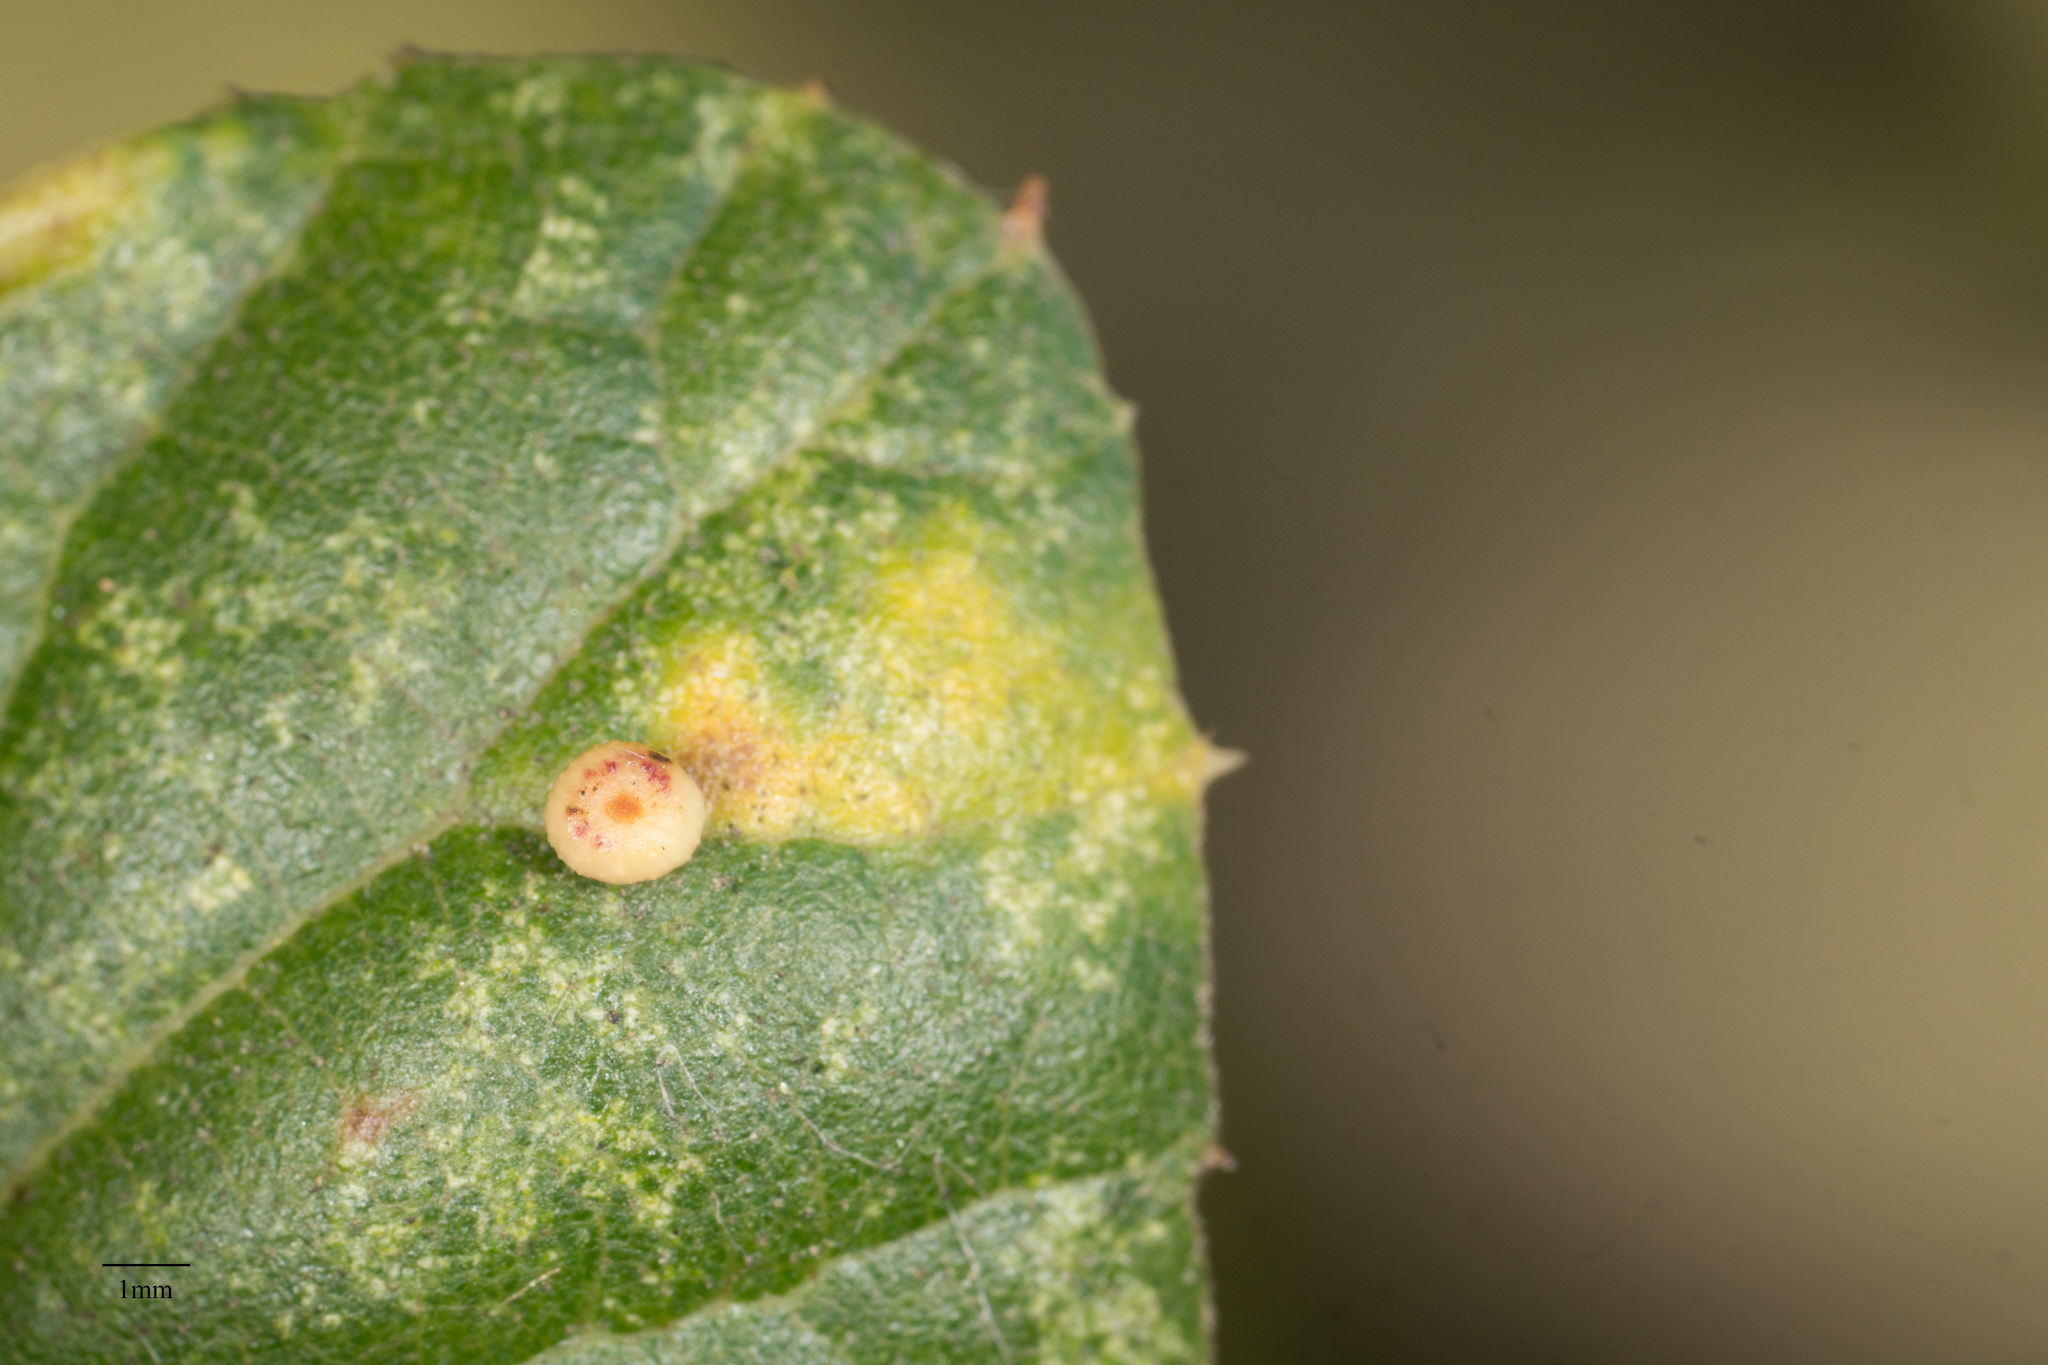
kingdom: Animalia
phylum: Arthropoda
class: Insecta
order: Hymenoptera
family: Cynipidae
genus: Dryocosmus
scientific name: Dryocosmus
